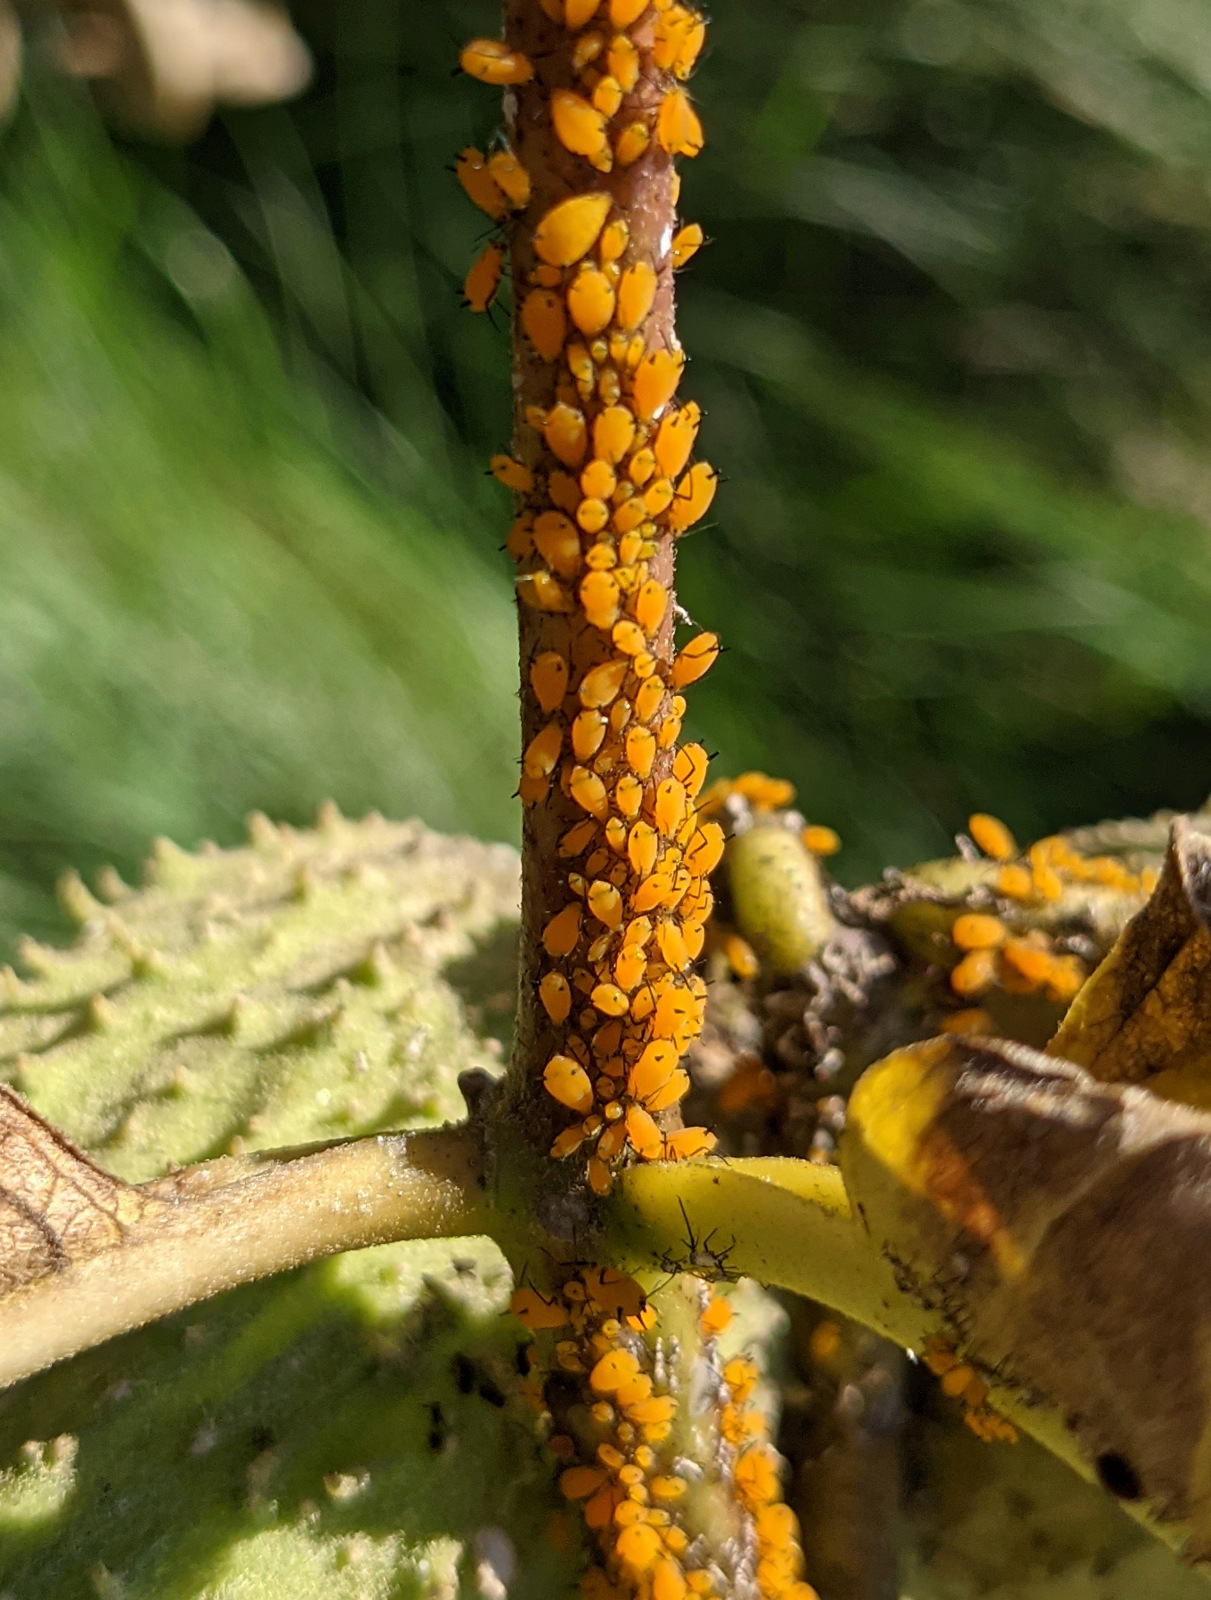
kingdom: Animalia
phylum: Arthropoda
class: Insecta
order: Hemiptera
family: Aphididae
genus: Aphis
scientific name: Aphis nerii
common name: Oleander aphid
